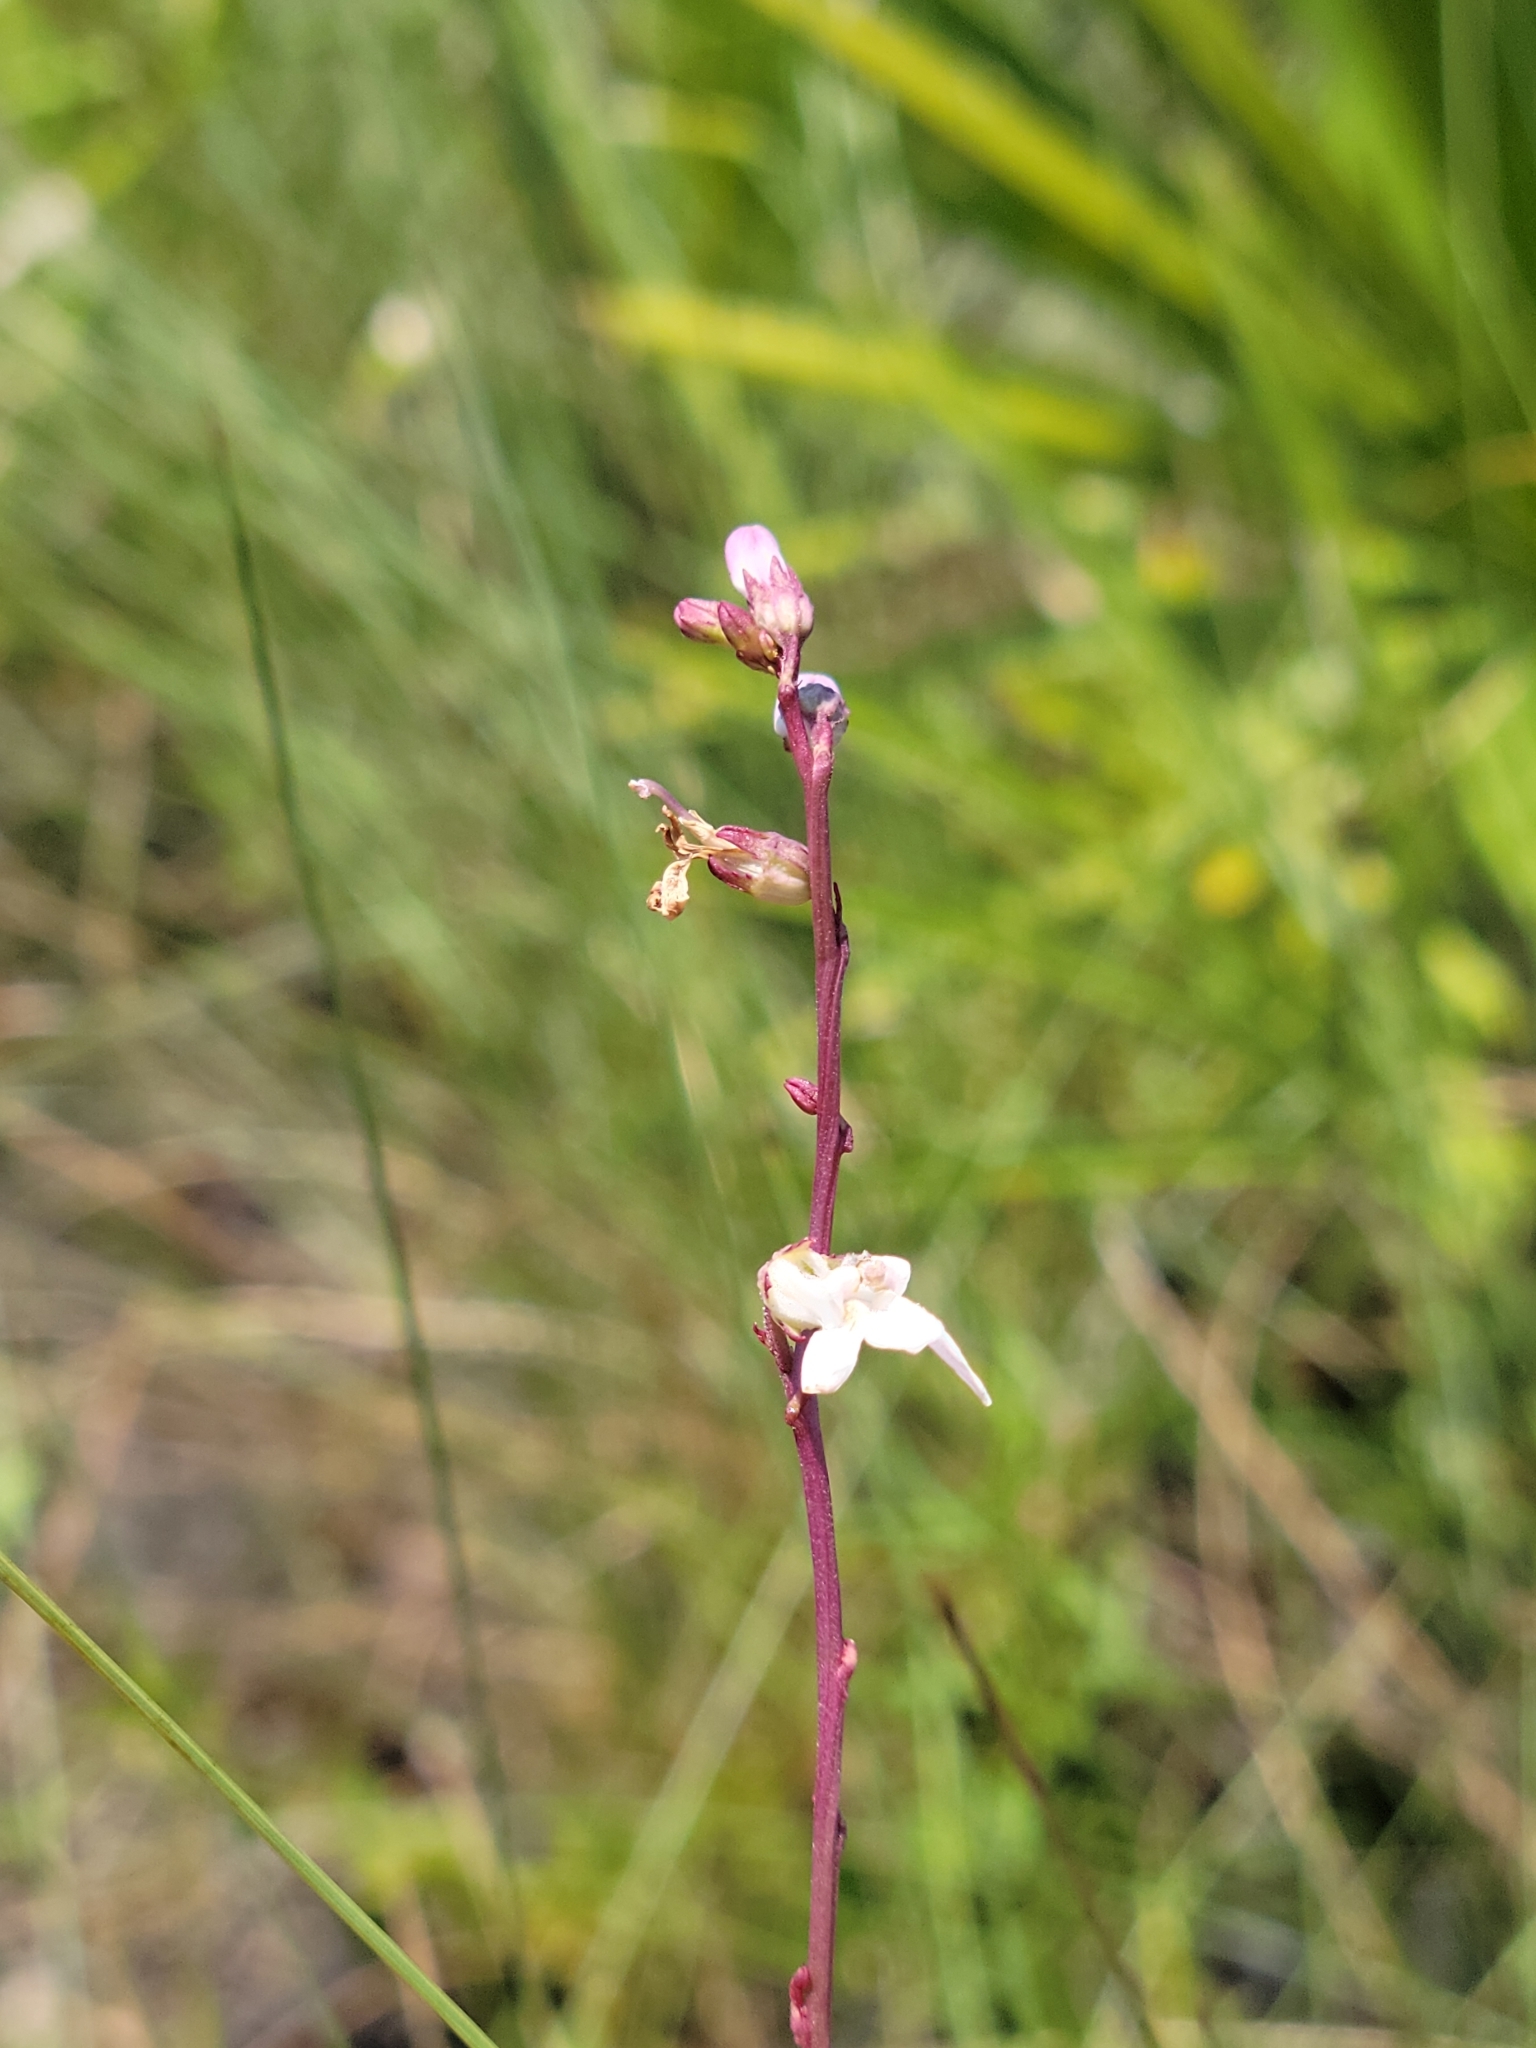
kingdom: Plantae
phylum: Tracheophyta
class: Magnoliopsida
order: Asterales
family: Campanulaceae
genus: Lobelia
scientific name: Lobelia paludosa
